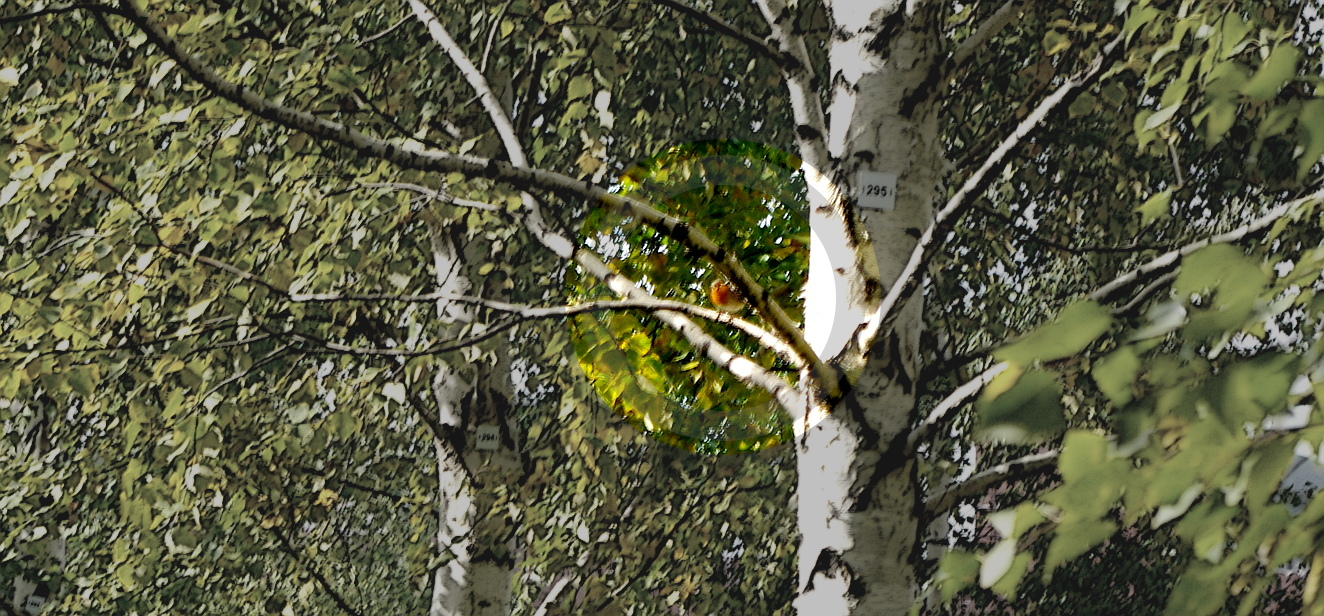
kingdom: Animalia
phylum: Chordata
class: Aves
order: Passeriformes
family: Muscicapidae
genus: Erithacus
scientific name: Erithacus rubecula
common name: European robin
